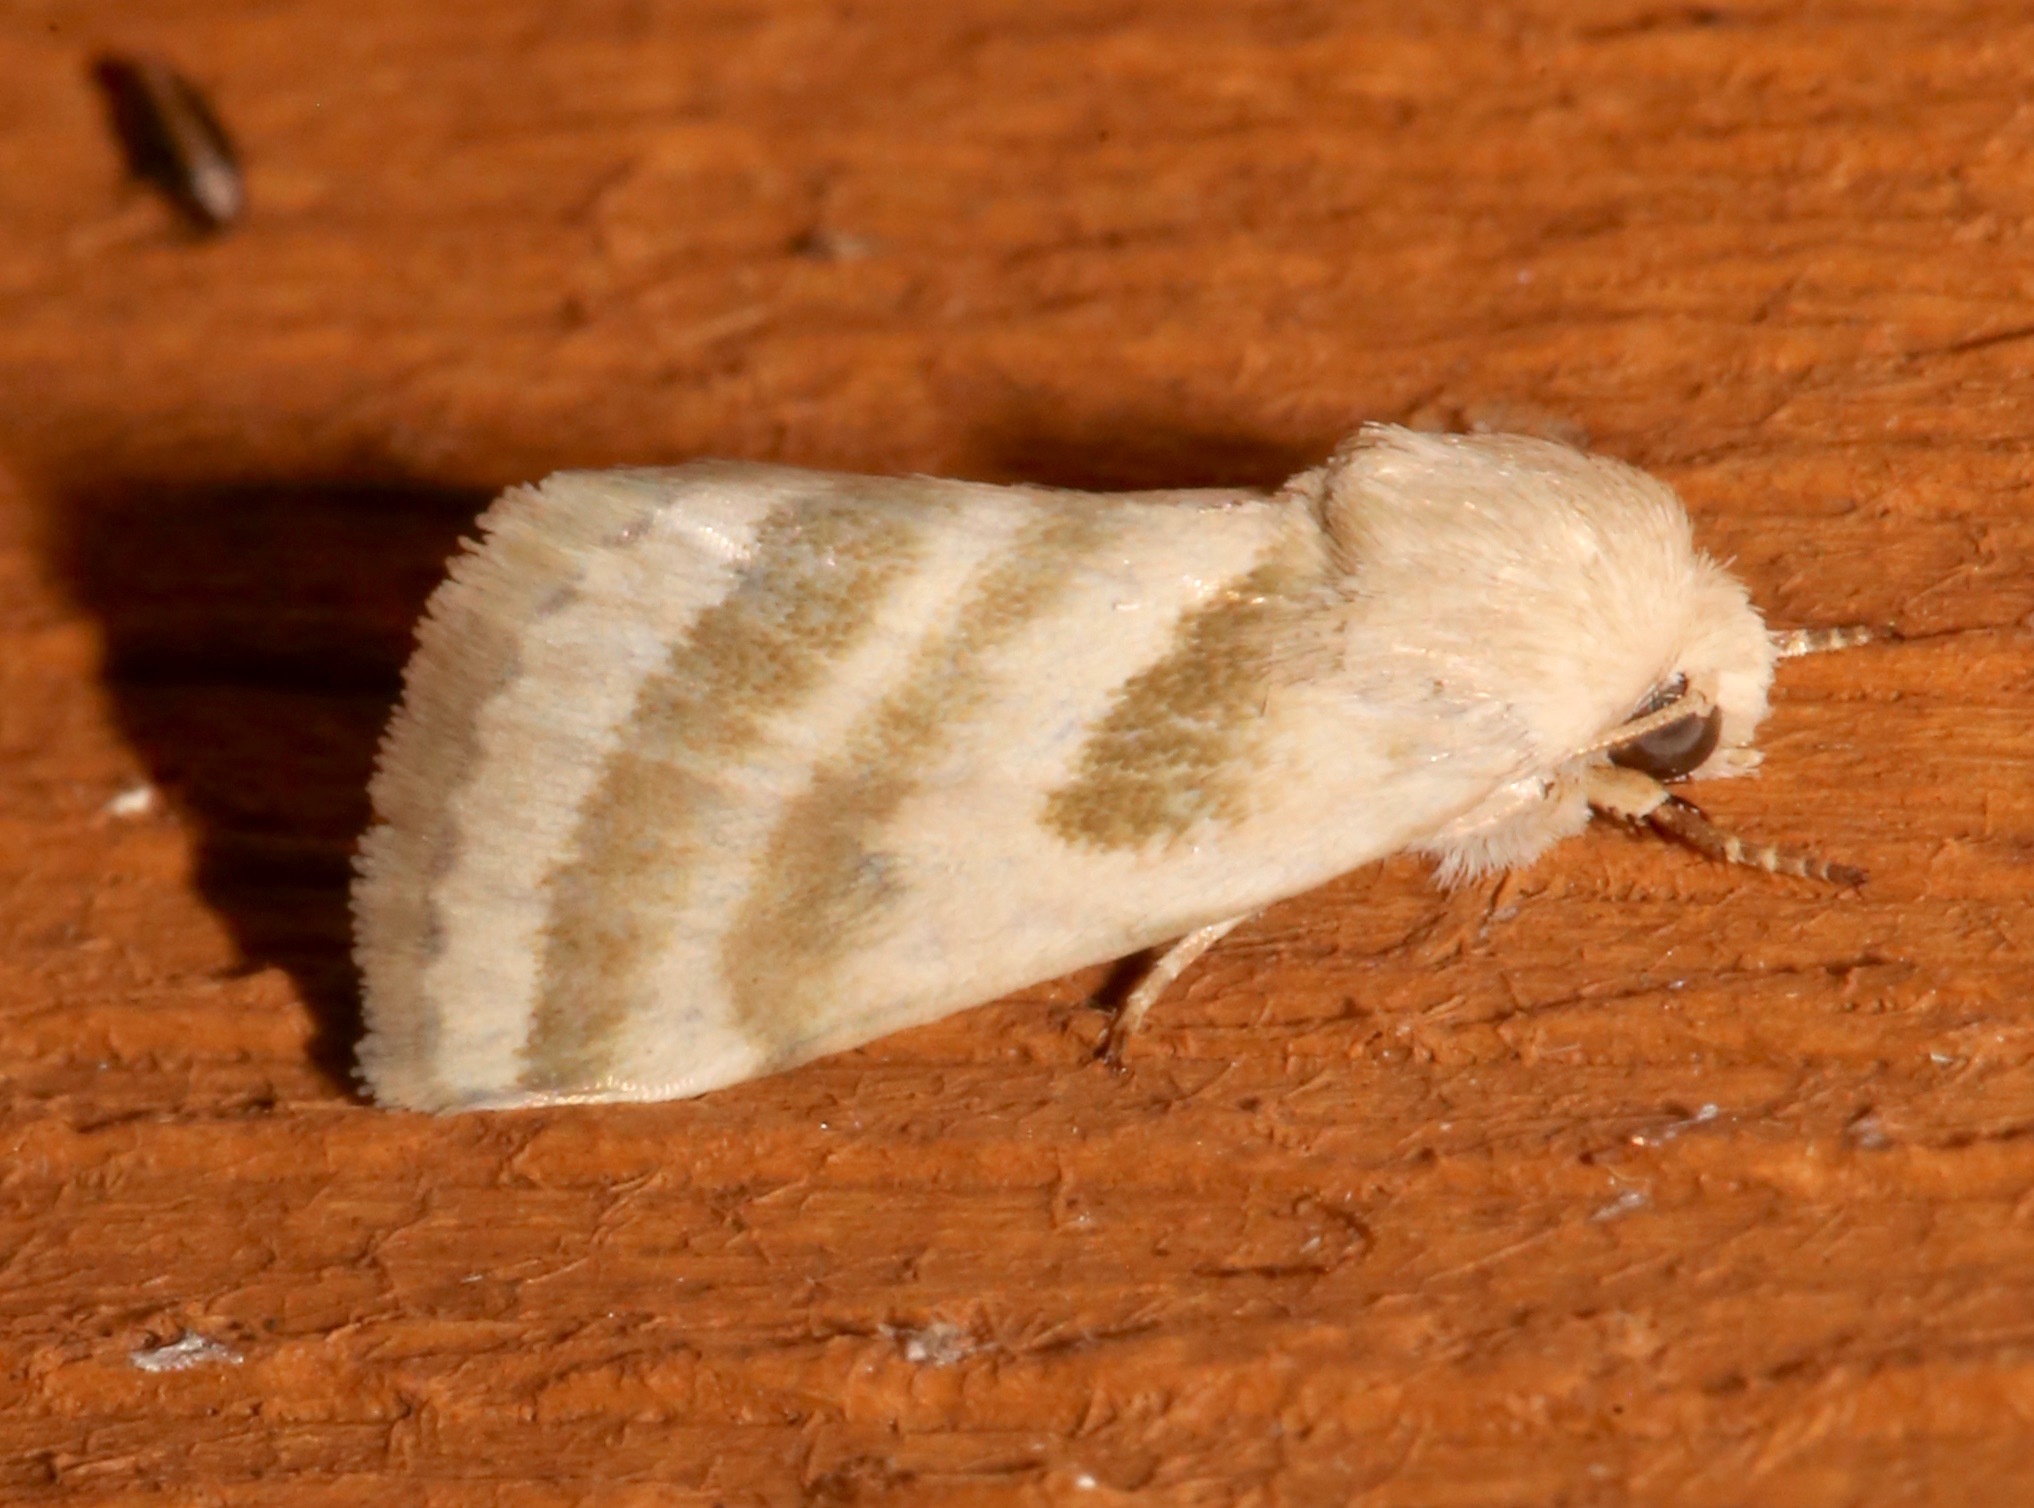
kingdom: Animalia
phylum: Arthropoda
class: Insecta
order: Lepidoptera
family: Noctuidae
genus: Schinia
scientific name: Schinia trifascia
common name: Three-lined flower moth
